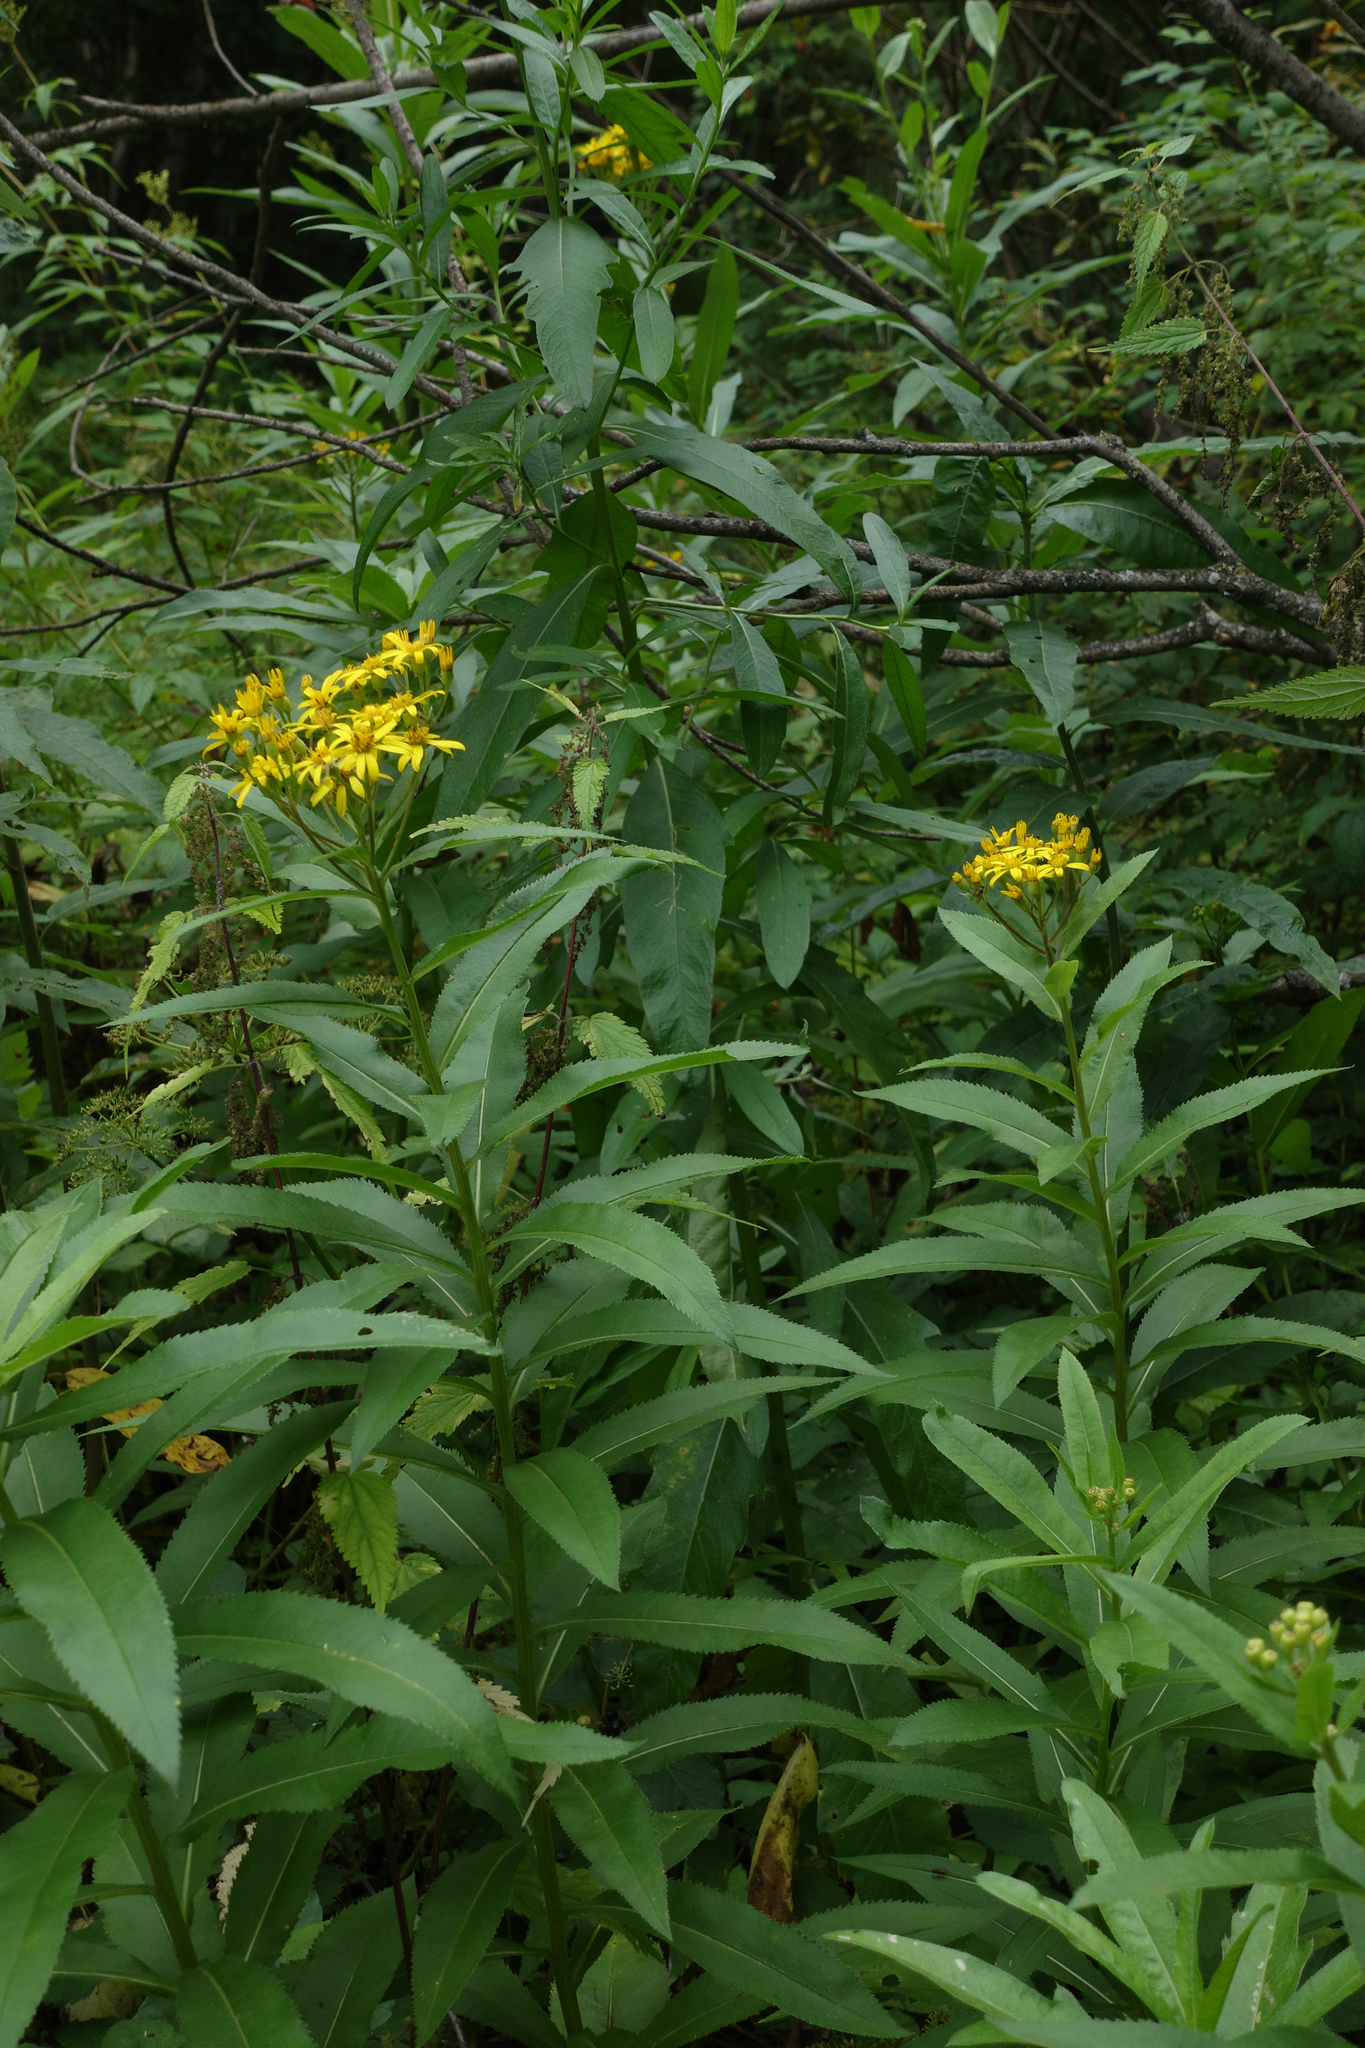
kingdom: Plantae
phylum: Tracheophyta
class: Magnoliopsida
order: Asterales
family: Asteraceae
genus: Senecio
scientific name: Senecio sarracenicus
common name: Broad-leaved ragwort
